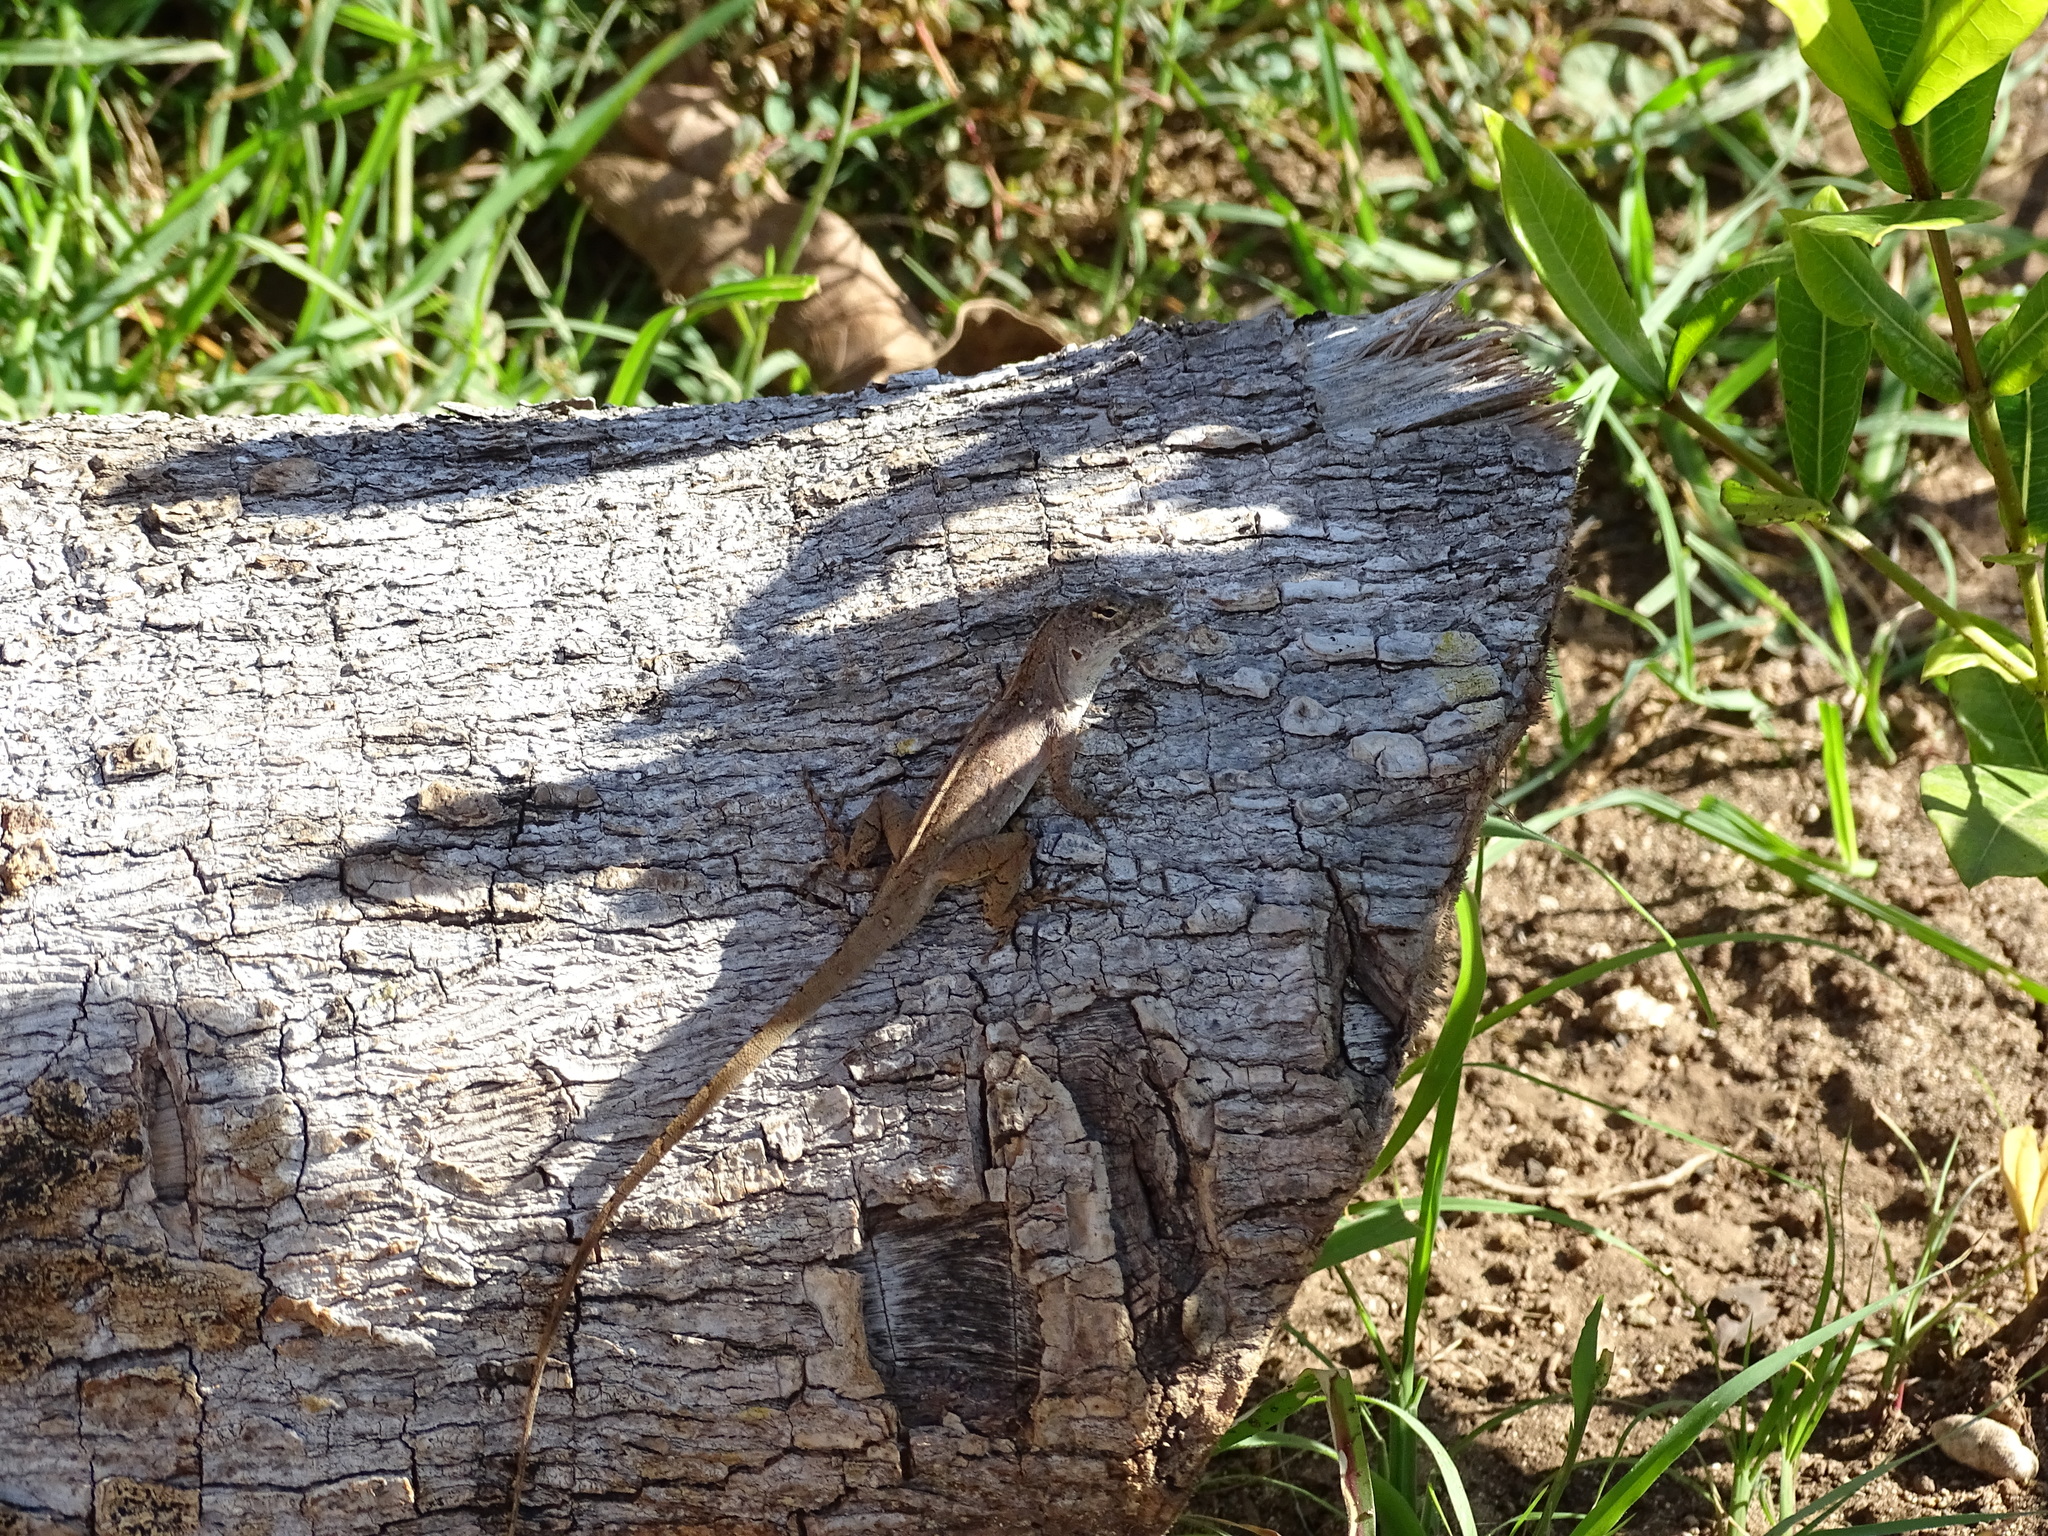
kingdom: Animalia
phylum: Chordata
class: Squamata
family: Dactyloidae
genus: Anolis
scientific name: Anolis sagrei
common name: Brown anole
